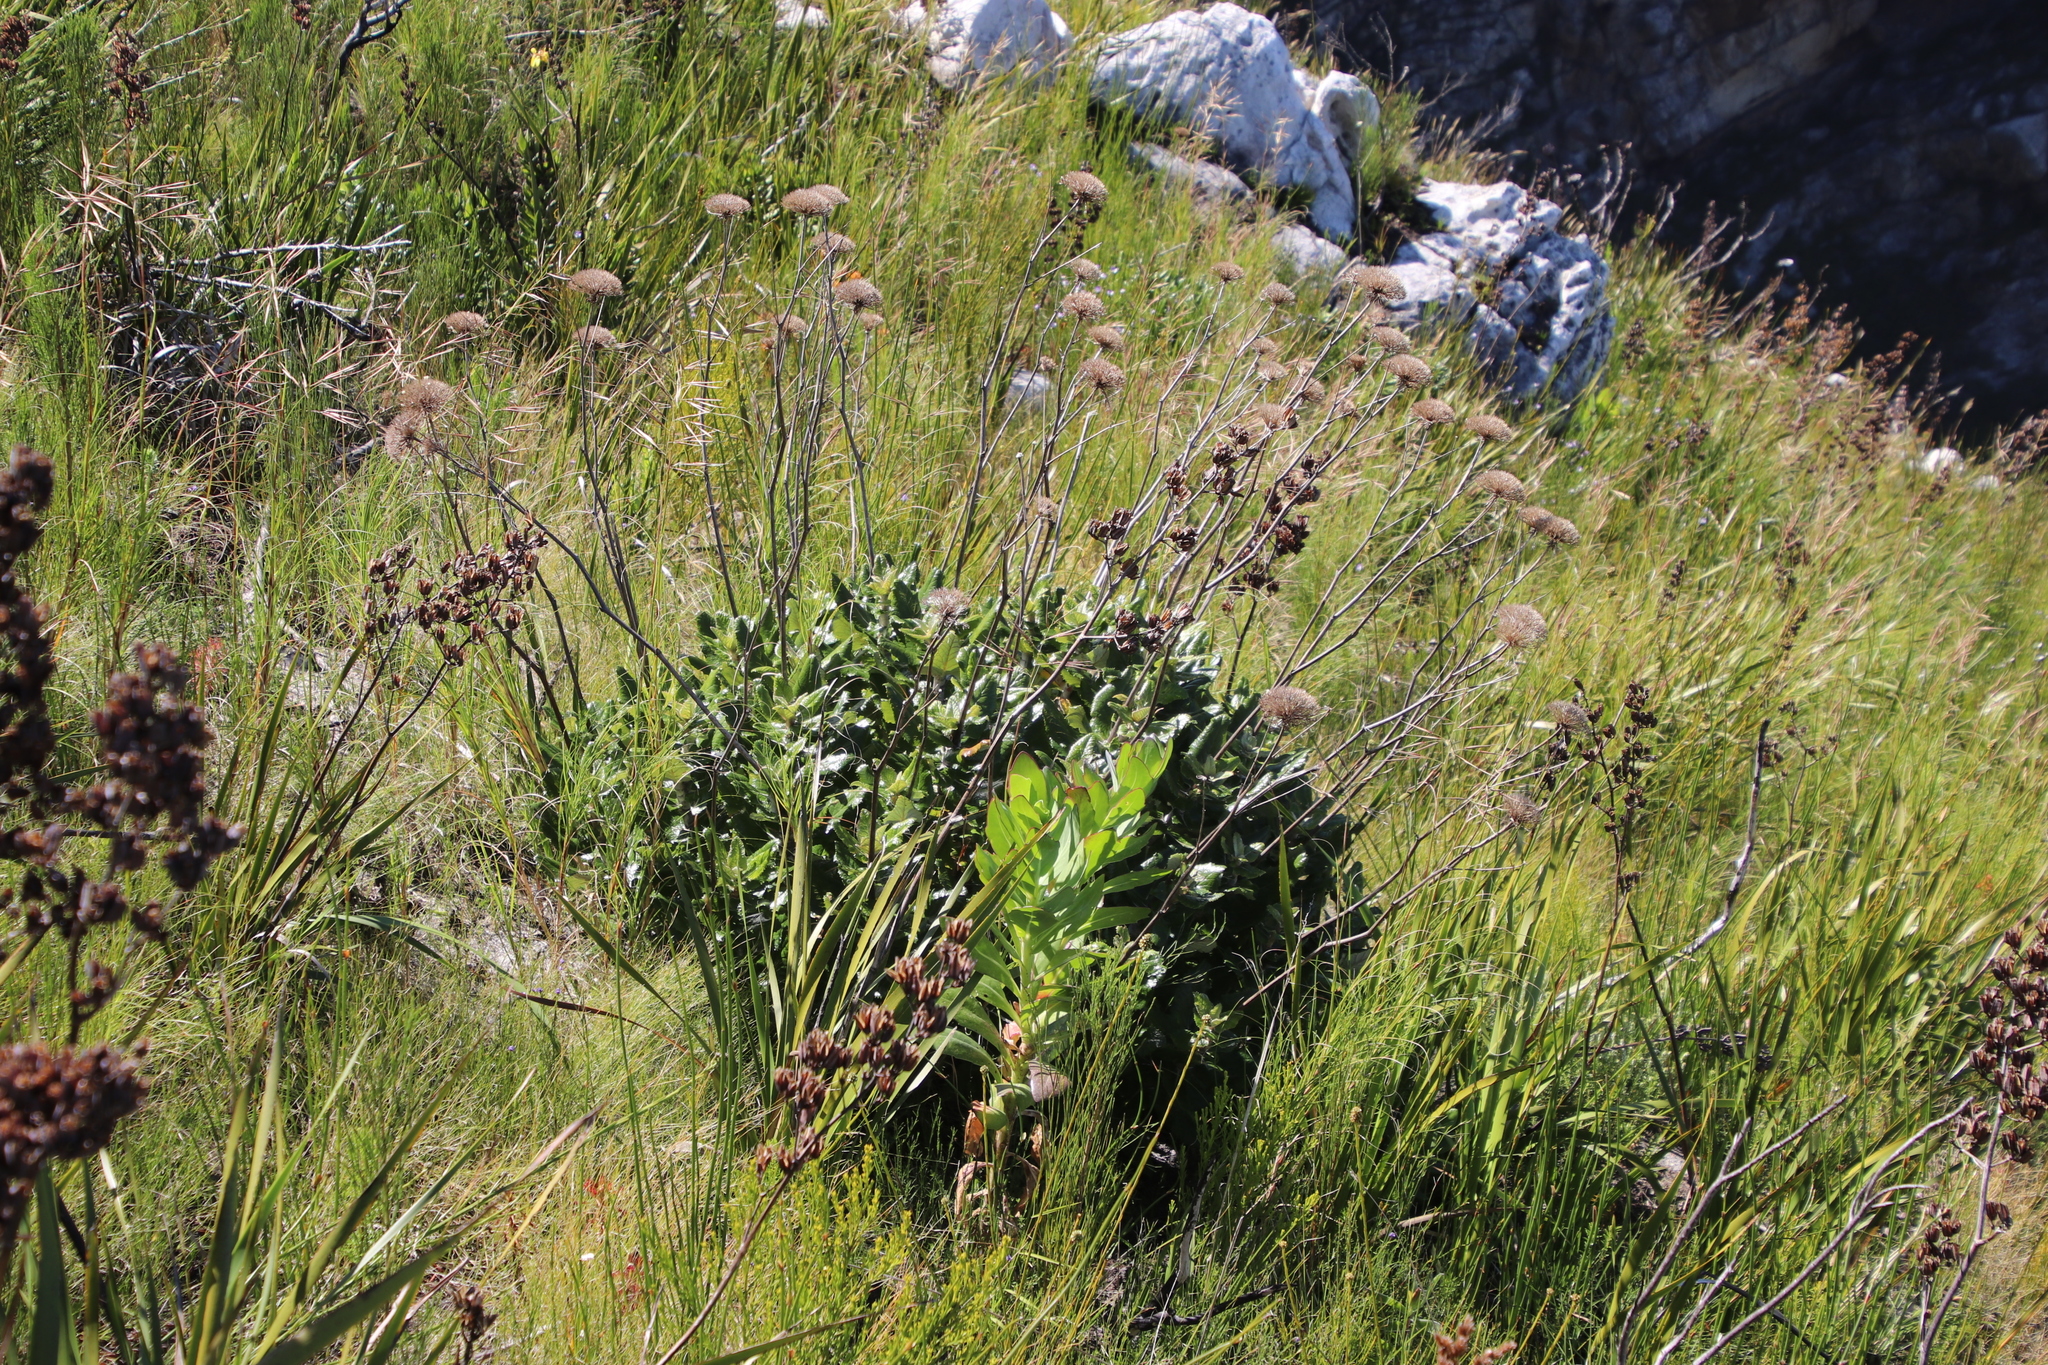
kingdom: Plantae
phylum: Tracheophyta
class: Magnoliopsida
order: Apiales
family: Apiaceae
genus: Hermas
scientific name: Hermas villosa
